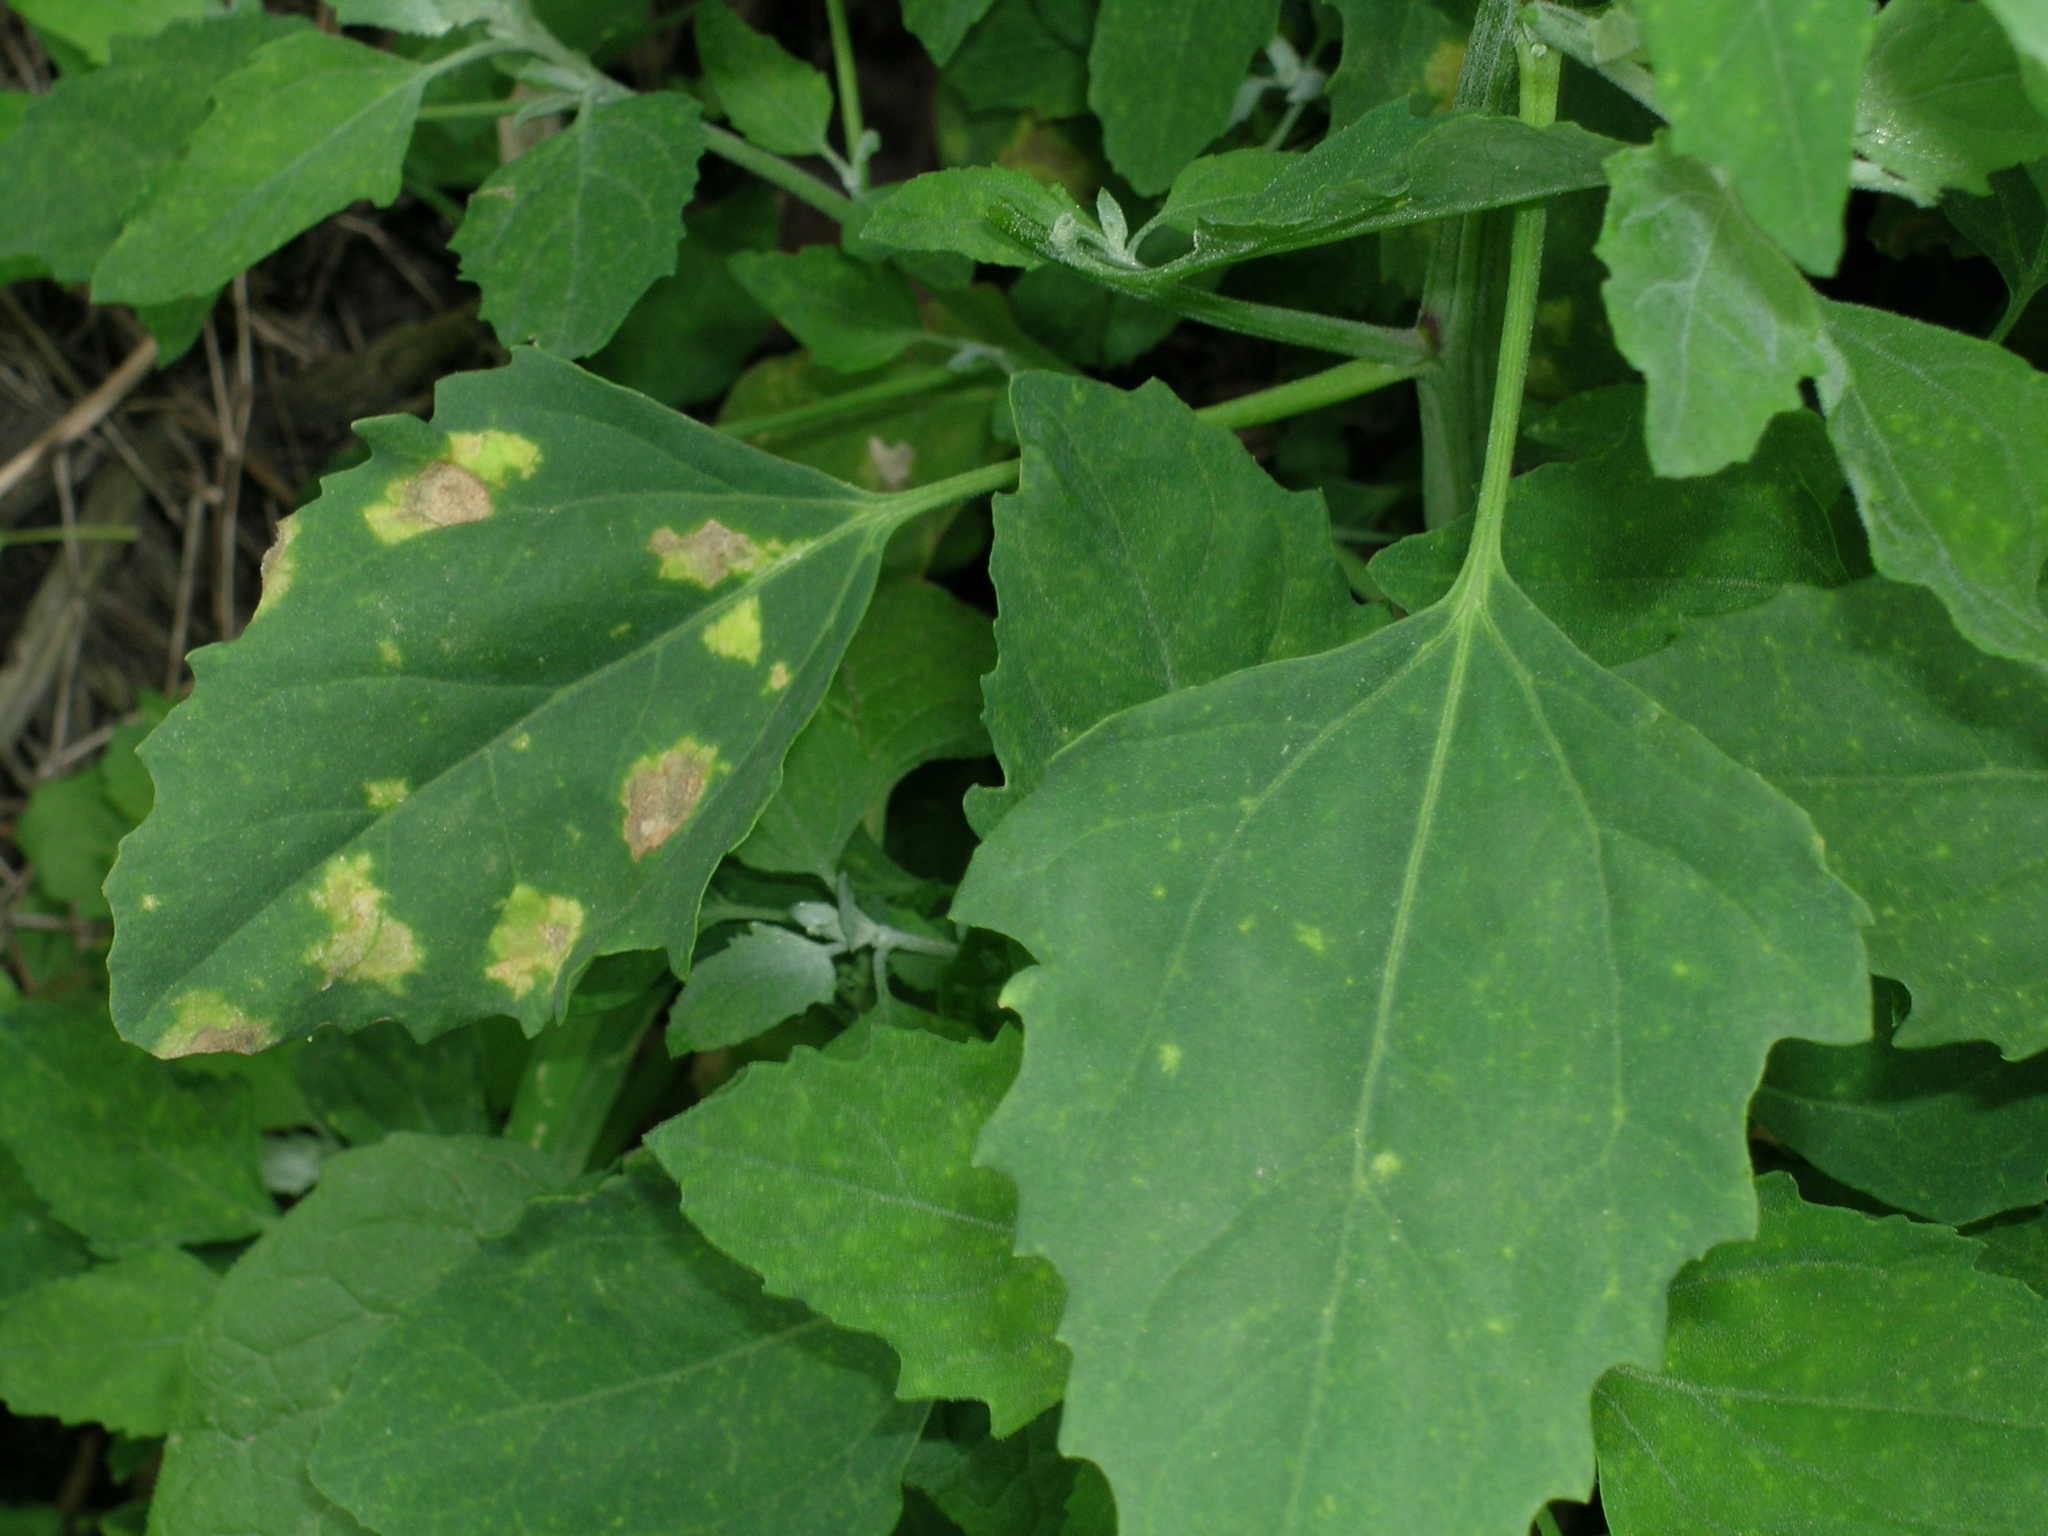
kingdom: Chromista
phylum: Oomycota
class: Peronosporea
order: Peronosporales
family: Peronosporaceae
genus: Peronospora
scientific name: Peronospora farinosa
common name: Beet downy mildew
